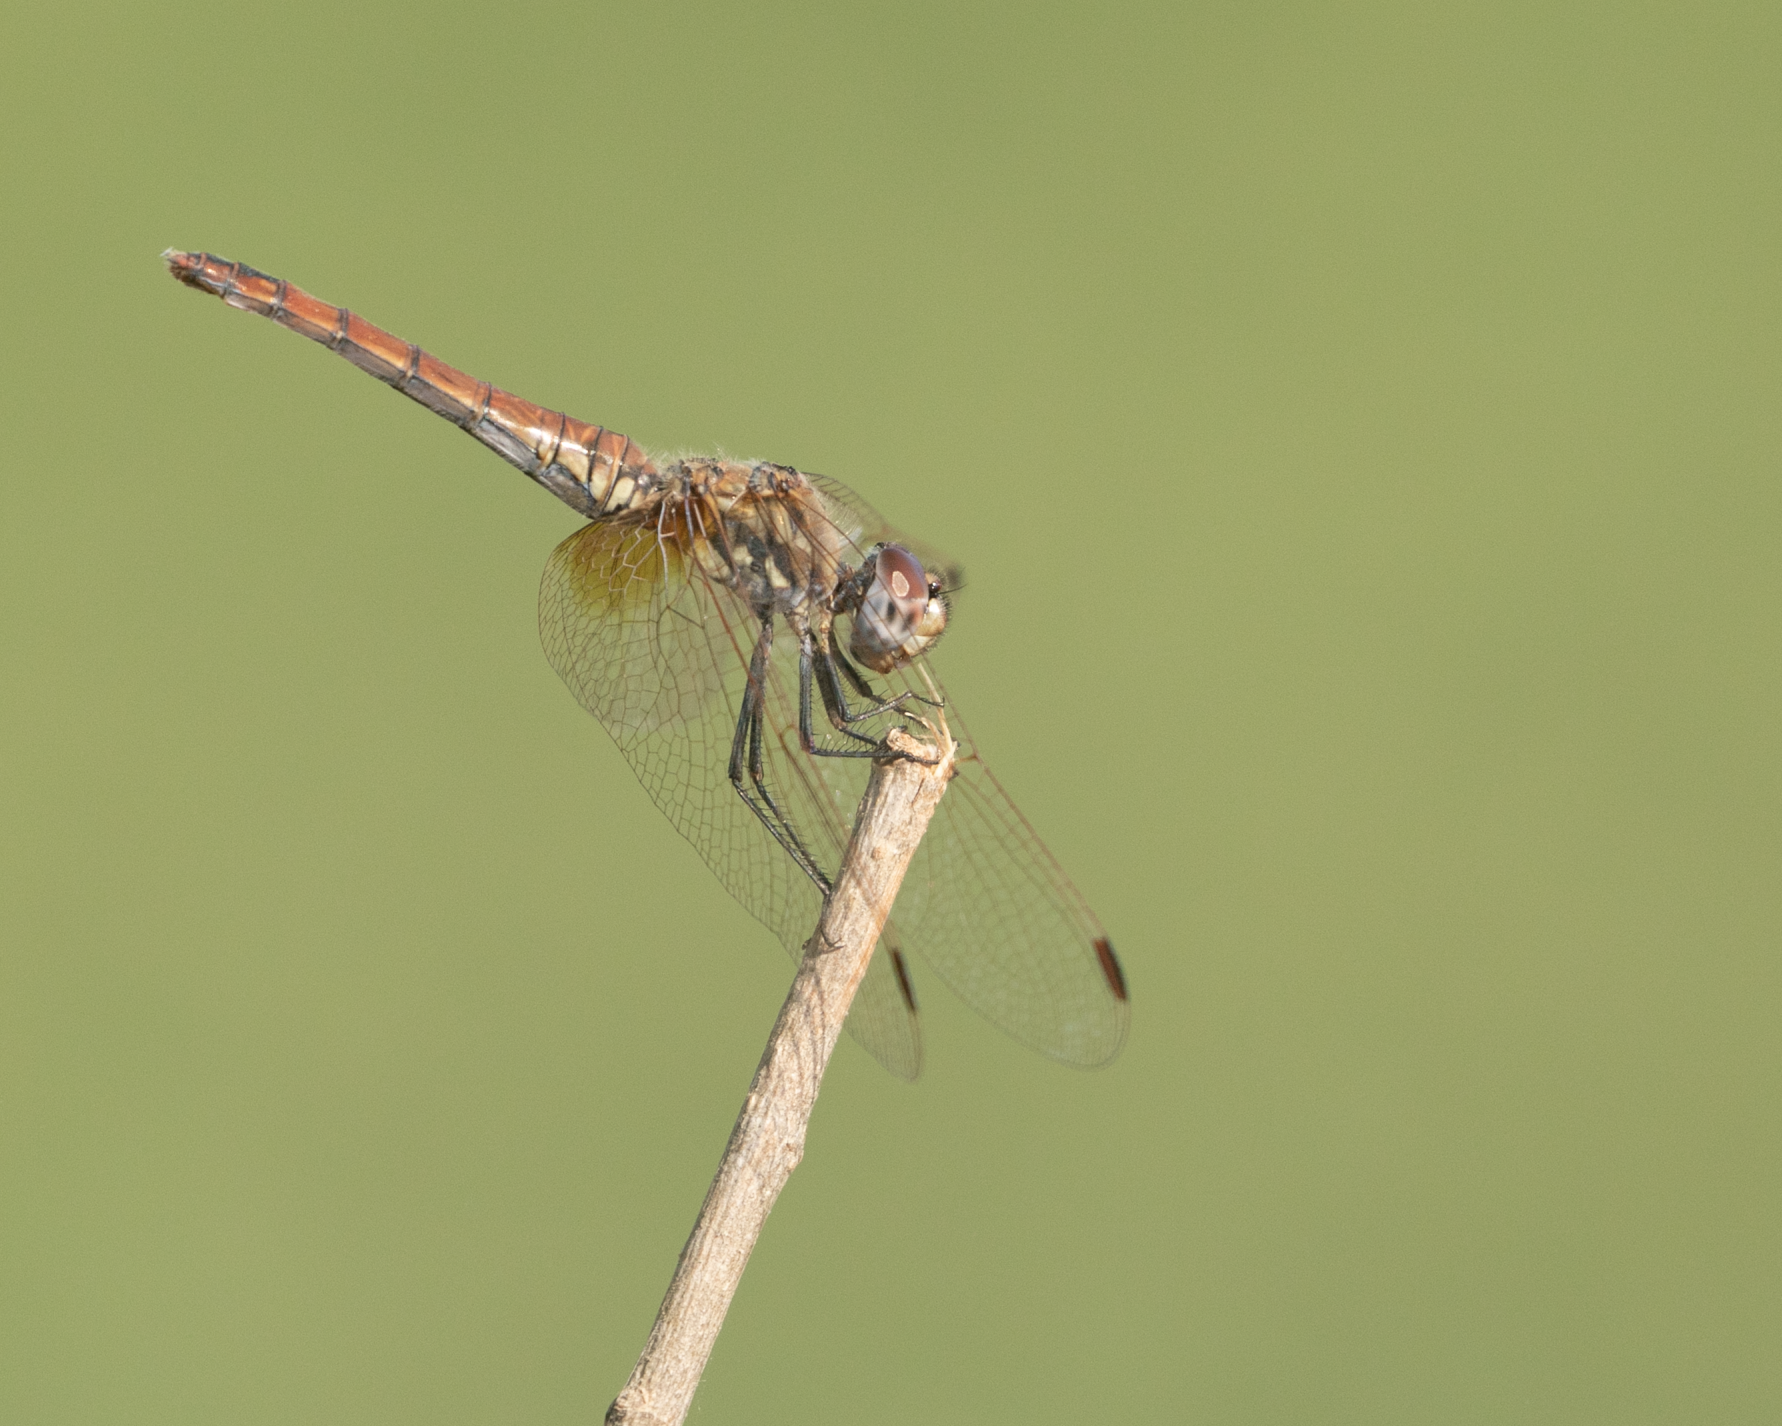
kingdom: Animalia
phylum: Arthropoda
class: Insecta
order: Odonata
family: Libellulidae
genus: Trithemis
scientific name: Trithemis annulata
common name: Violet dropwing
